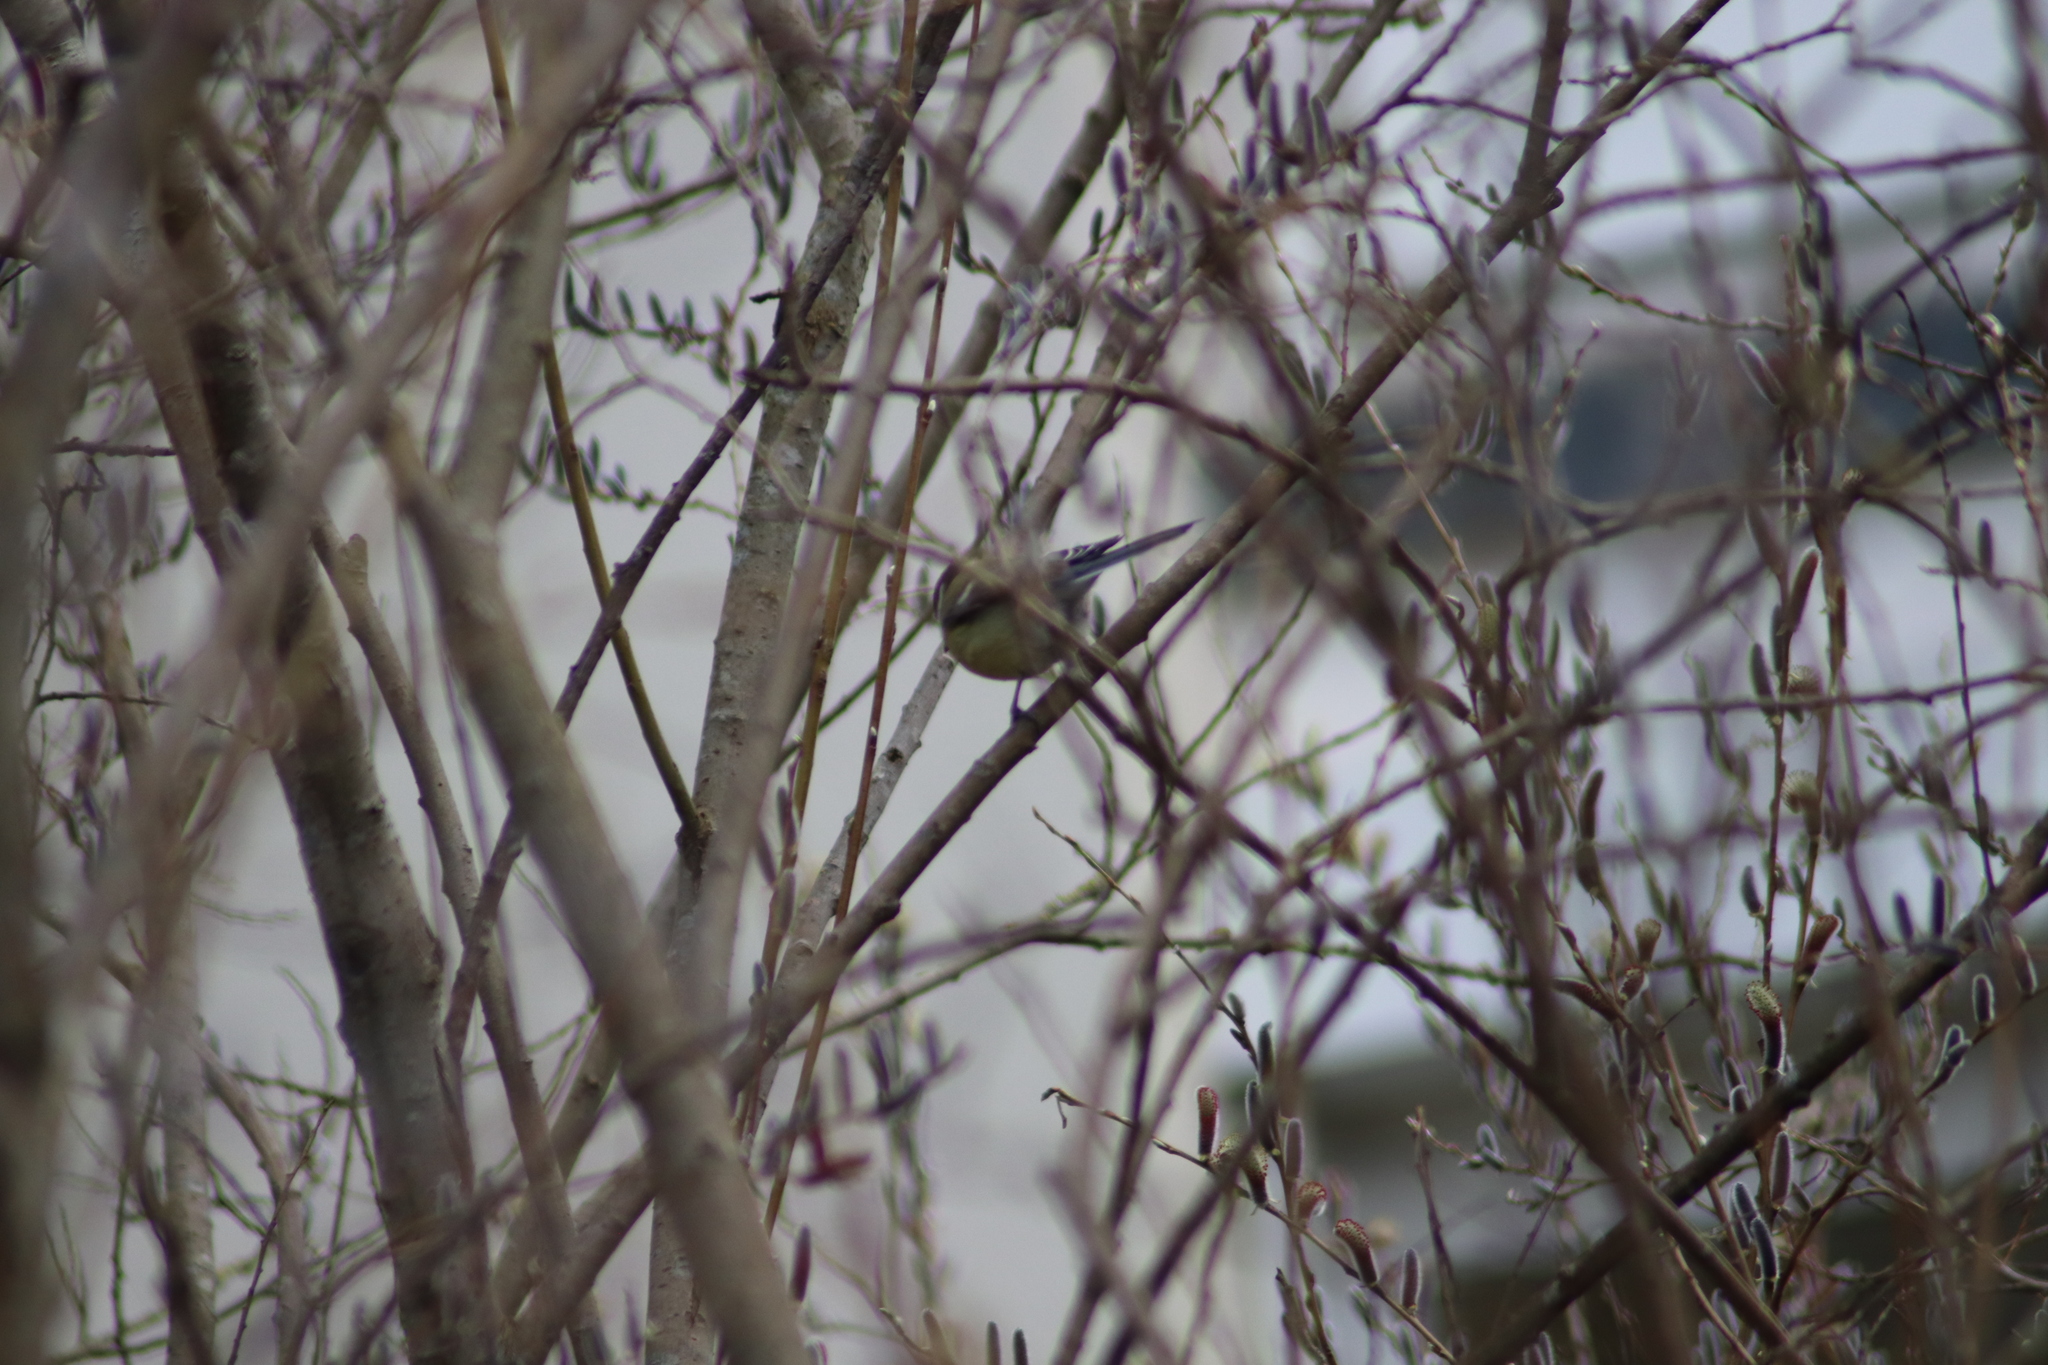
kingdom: Animalia
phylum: Chordata
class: Aves
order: Passeriformes
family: Paridae
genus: Parus
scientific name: Parus major
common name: Great tit
